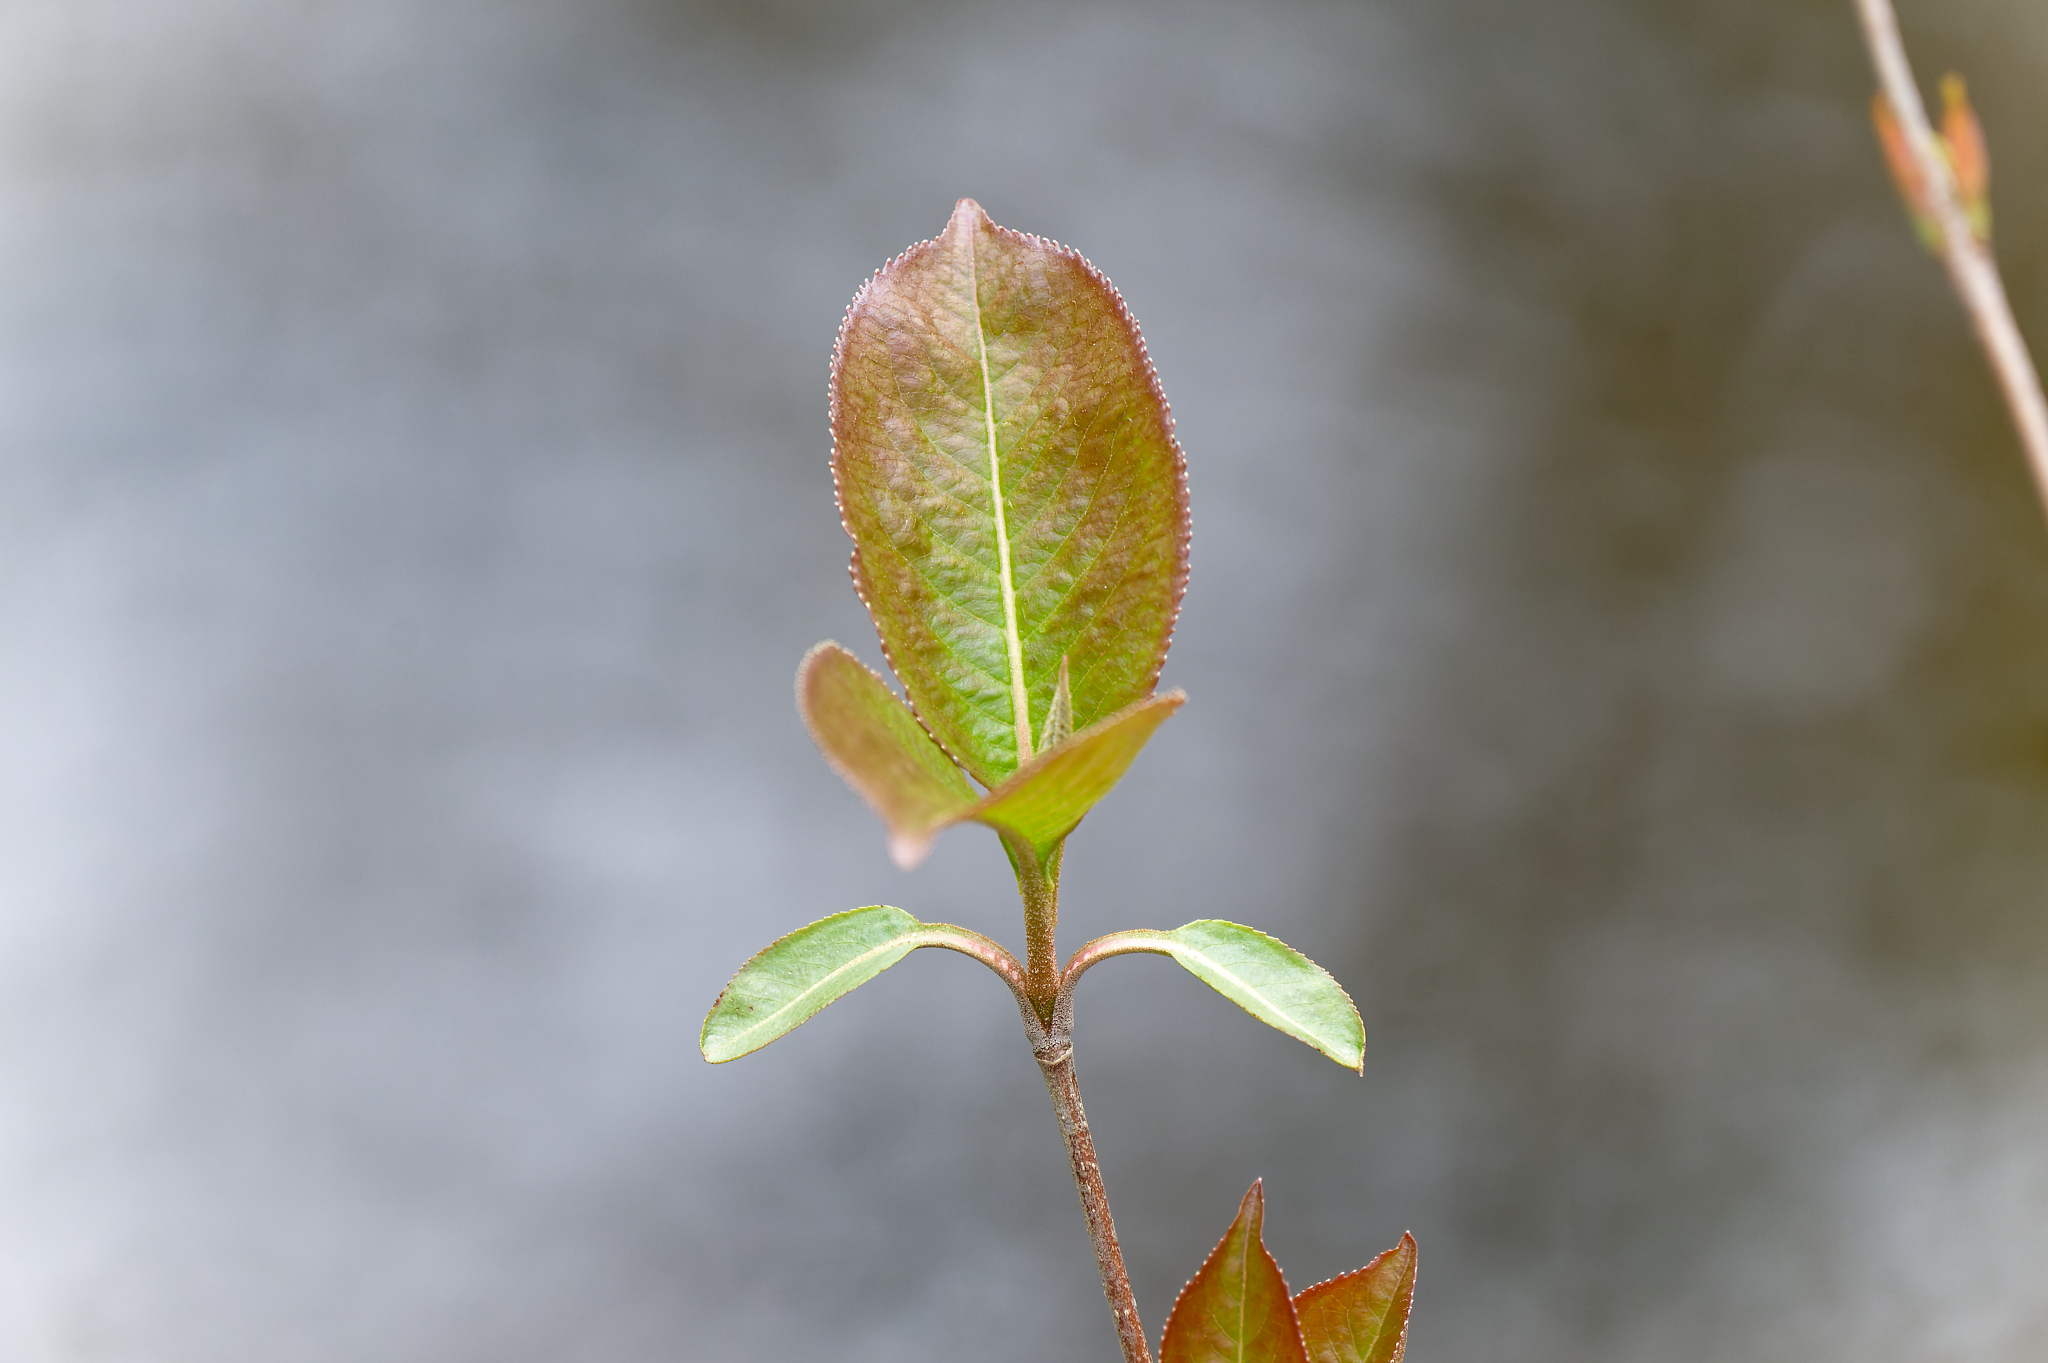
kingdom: Plantae
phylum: Tracheophyta
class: Magnoliopsida
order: Dipsacales
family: Viburnaceae
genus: Viburnum
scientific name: Viburnum lentago
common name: Black haw
